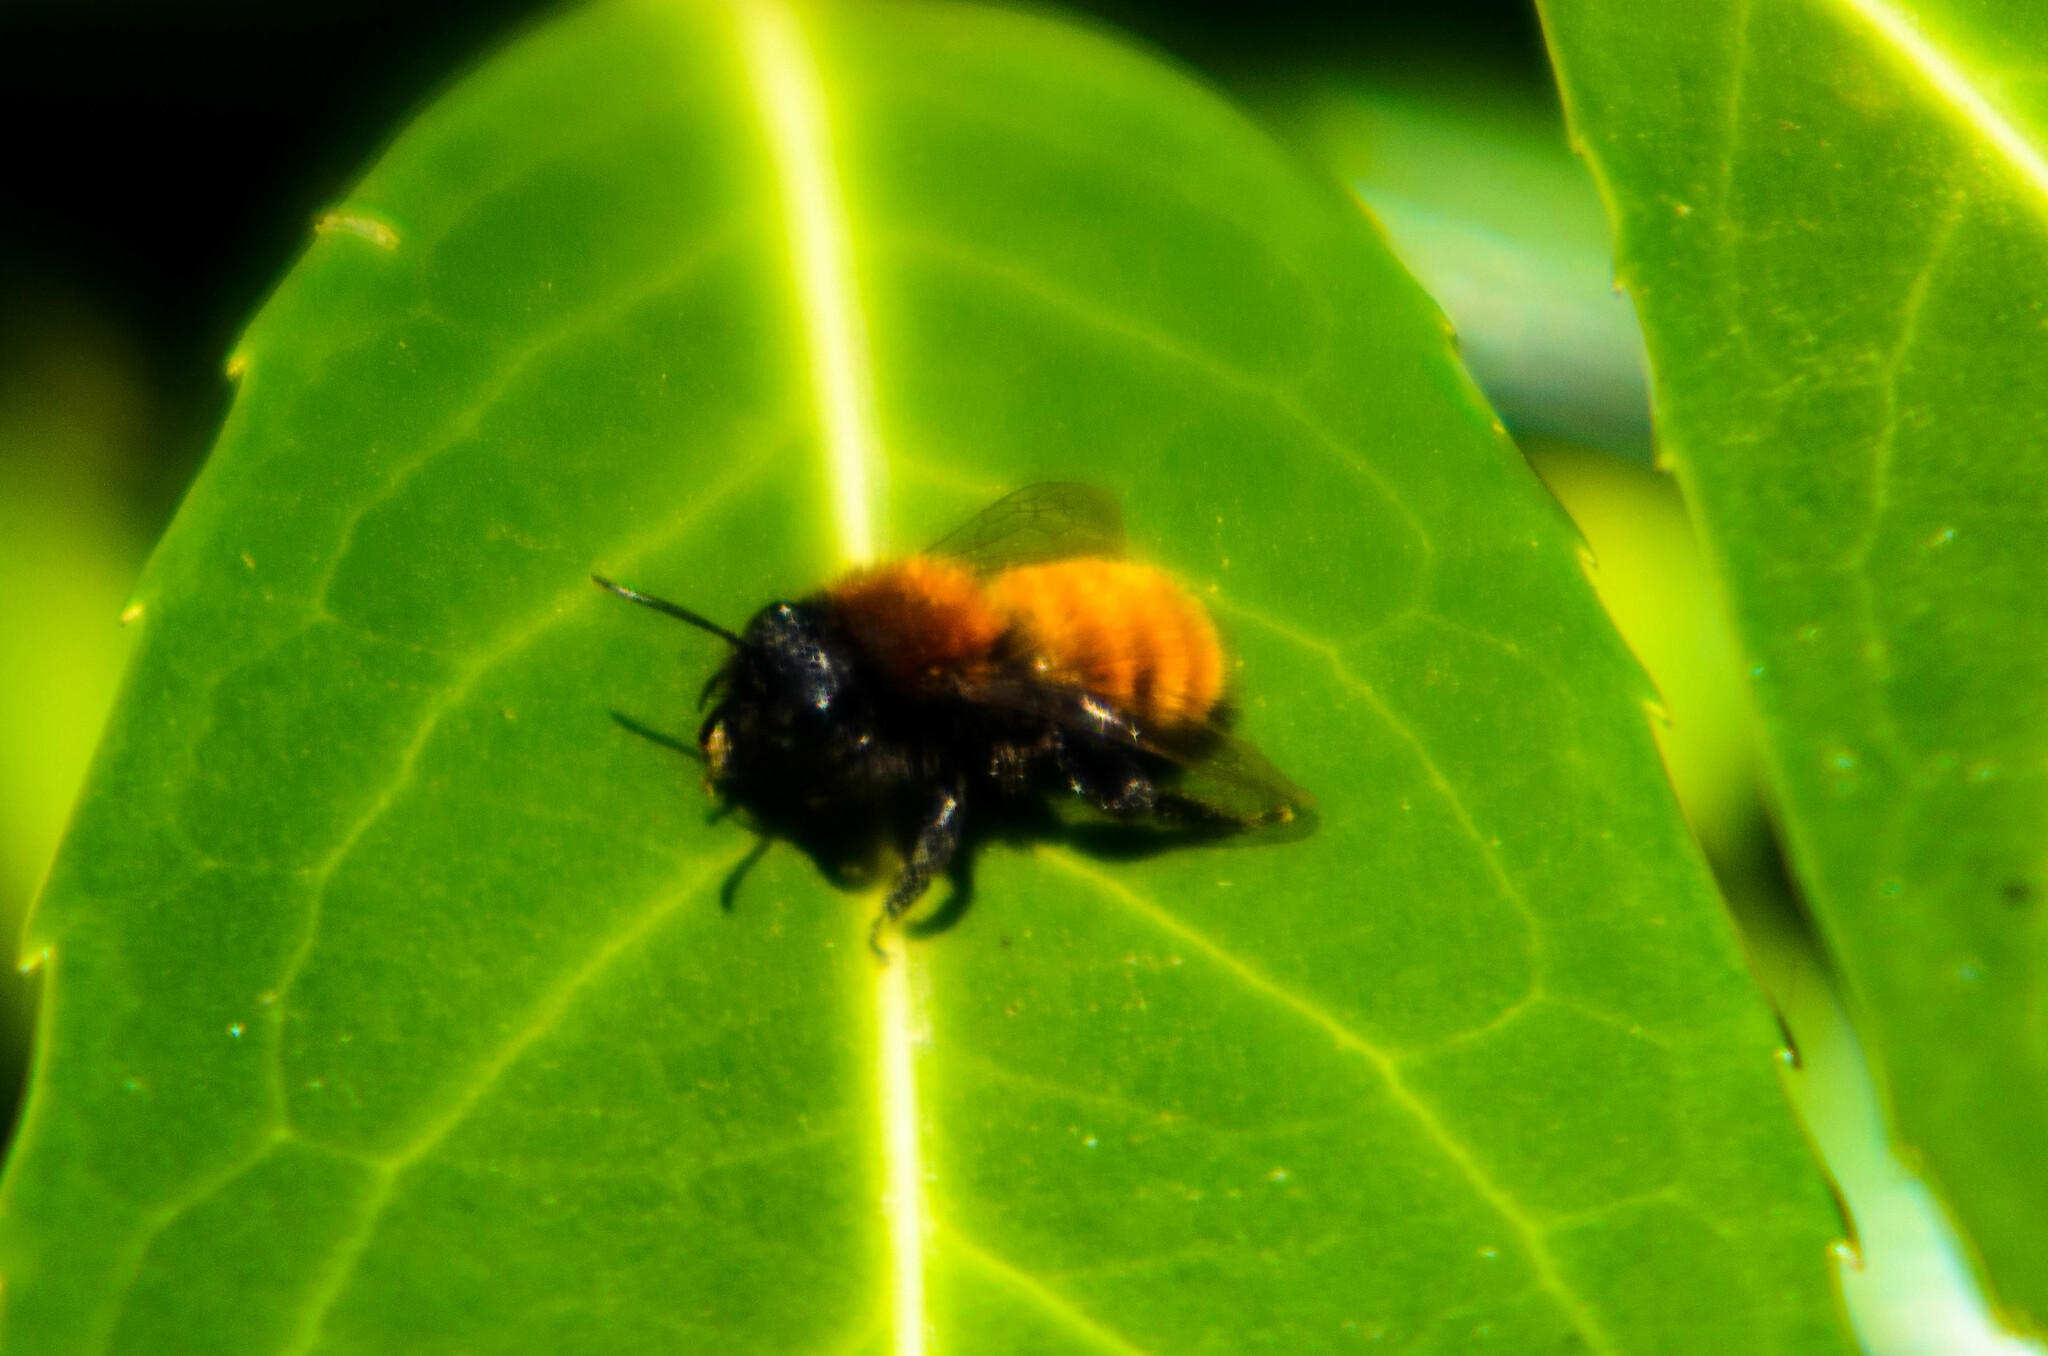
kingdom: Animalia
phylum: Arthropoda
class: Insecta
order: Hymenoptera
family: Andrenidae
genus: Andrena
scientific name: Andrena fulva
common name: Tawny mining bee
